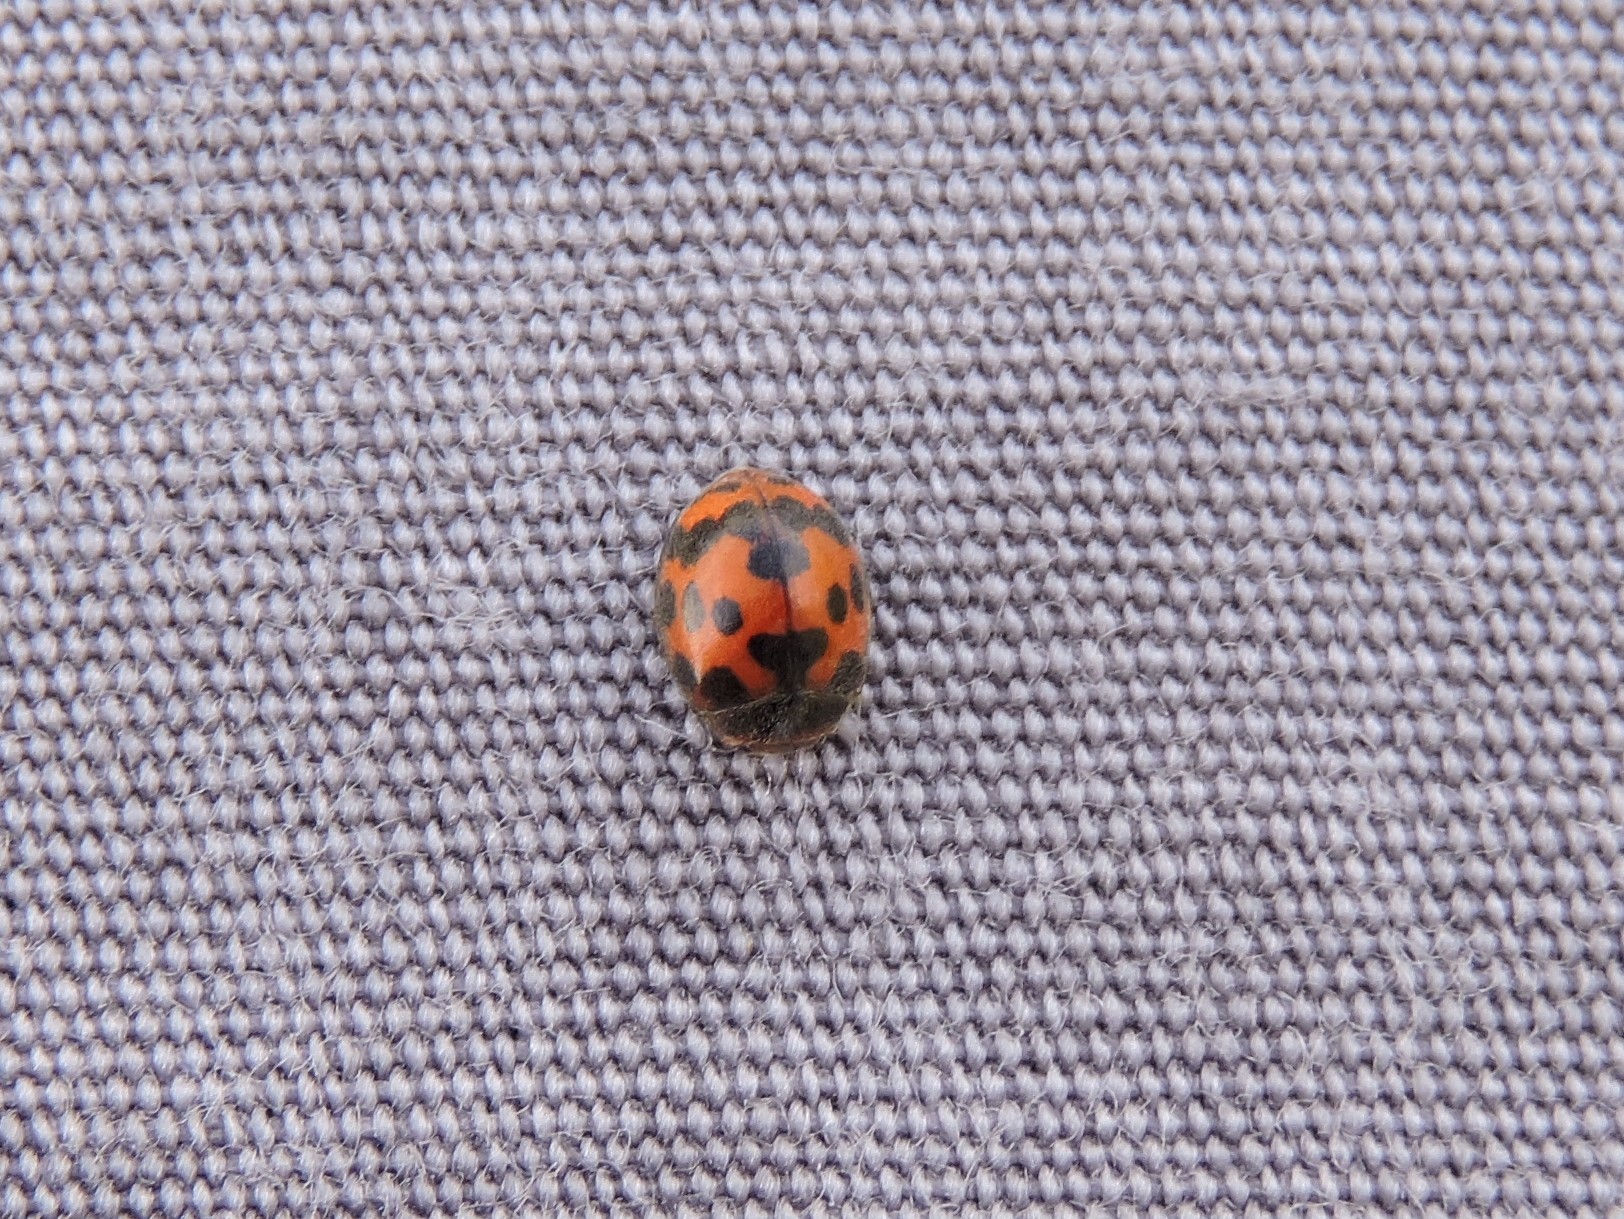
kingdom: Animalia
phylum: Arthropoda
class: Insecta
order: Coleoptera
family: Coccinellidae
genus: Subcoccinella
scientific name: Subcoccinella vigintiquatuorpunctata
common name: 24-spot ladybird
